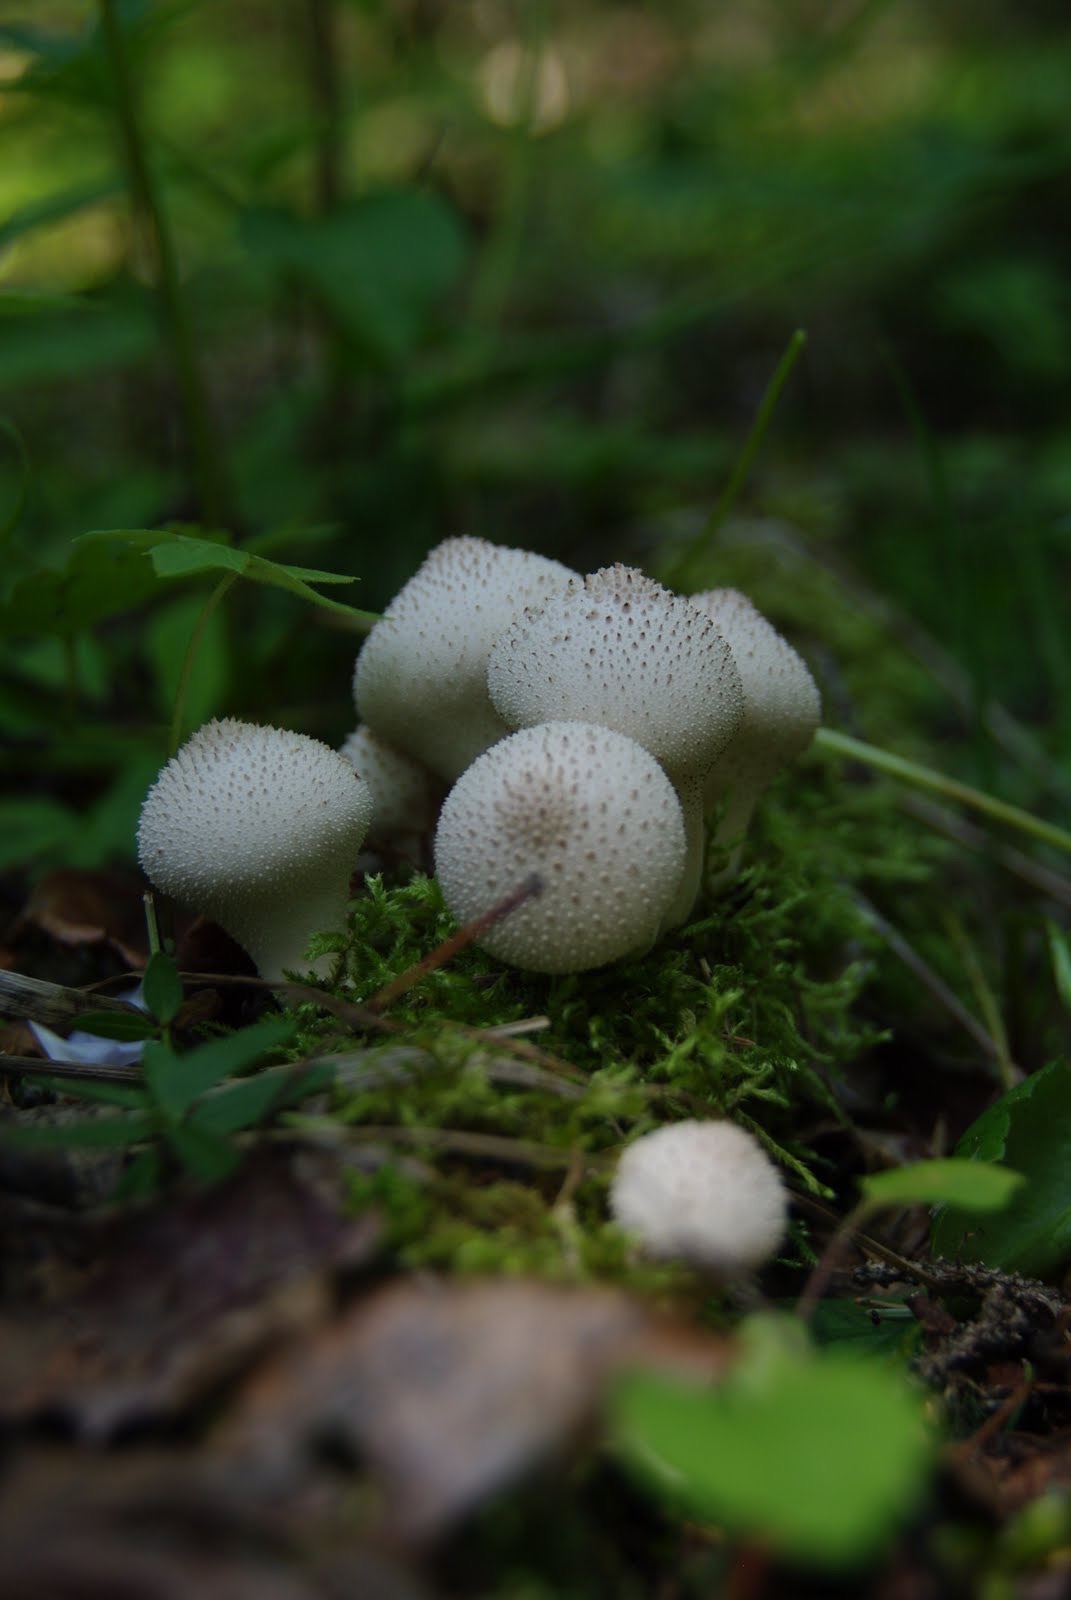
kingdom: Fungi
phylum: Basidiomycota
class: Agaricomycetes
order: Agaricales
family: Lycoperdaceae
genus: Lycoperdon
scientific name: Lycoperdon perlatum
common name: Common puffball
